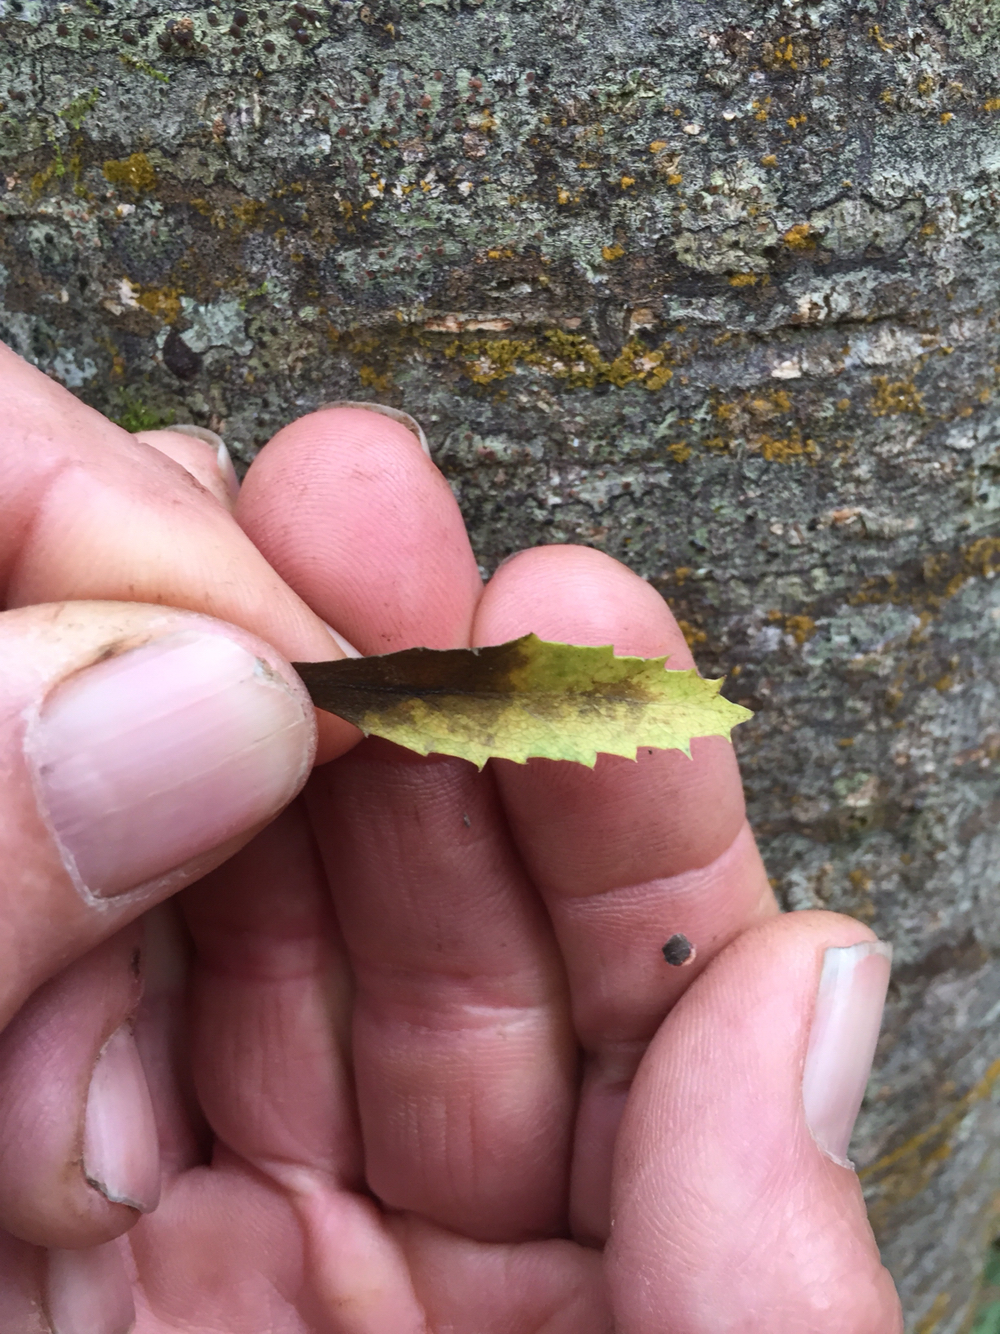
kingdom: Plantae
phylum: Tracheophyta
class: Magnoliopsida
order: Malvales
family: Malvaceae
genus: Hoheria
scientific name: Hoheria angustifolia
